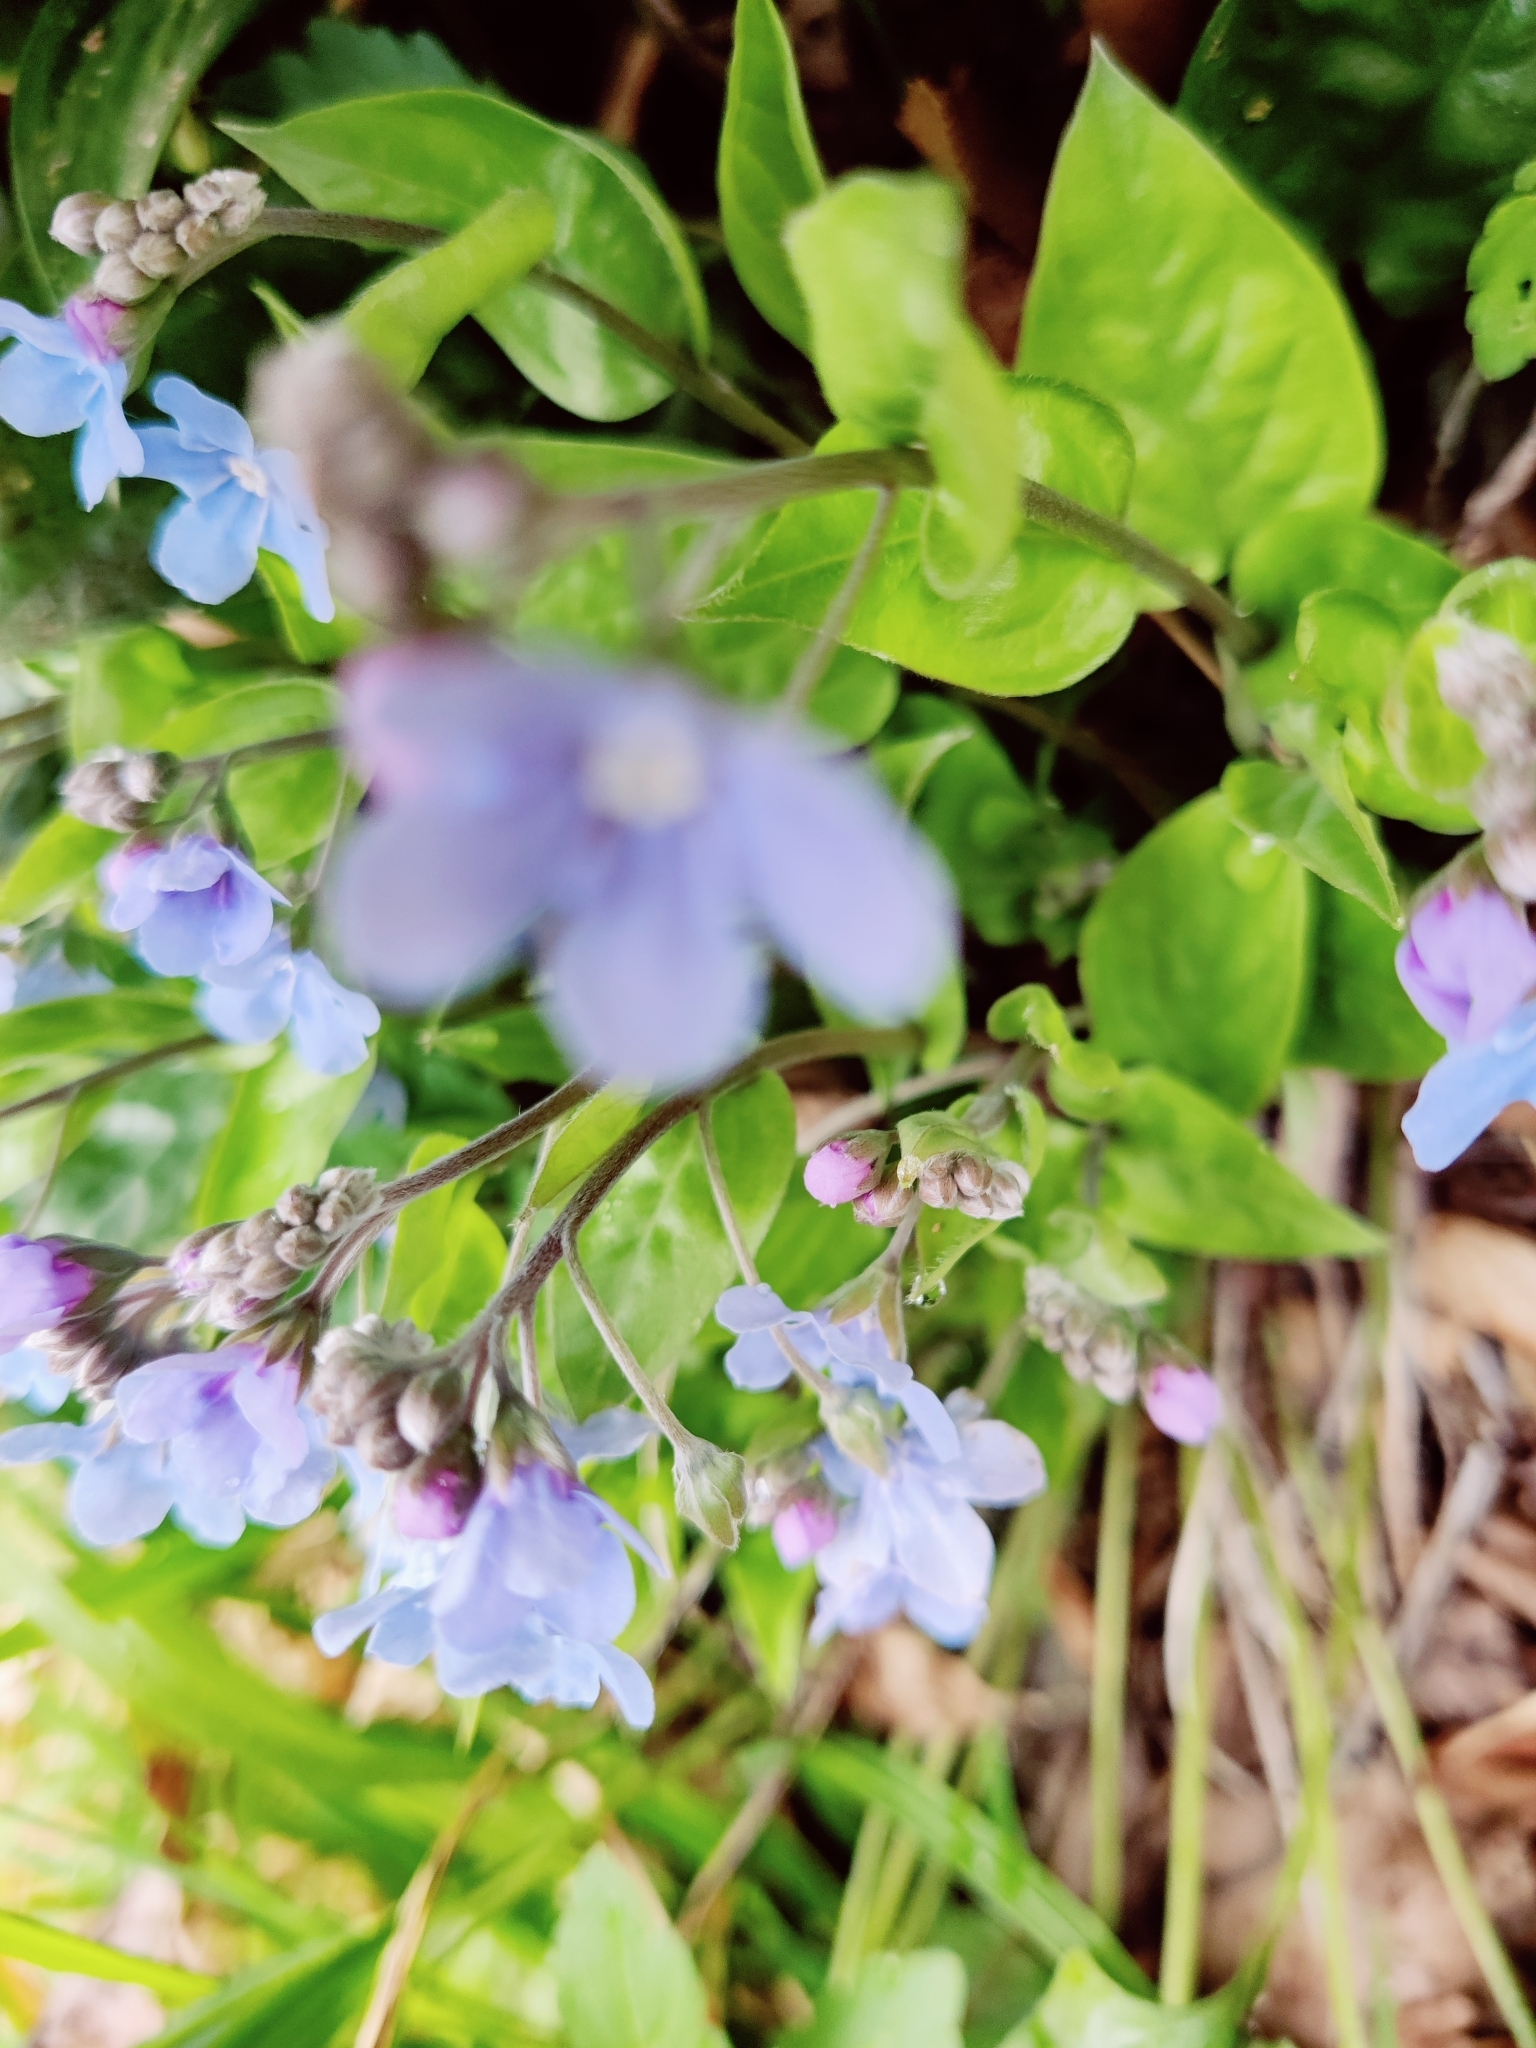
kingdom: Plantae
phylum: Tracheophyta
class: Magnoliopsida
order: Boraginales
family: Boraginaceae
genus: Omphalodes
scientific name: Omphalodes cappadocica
